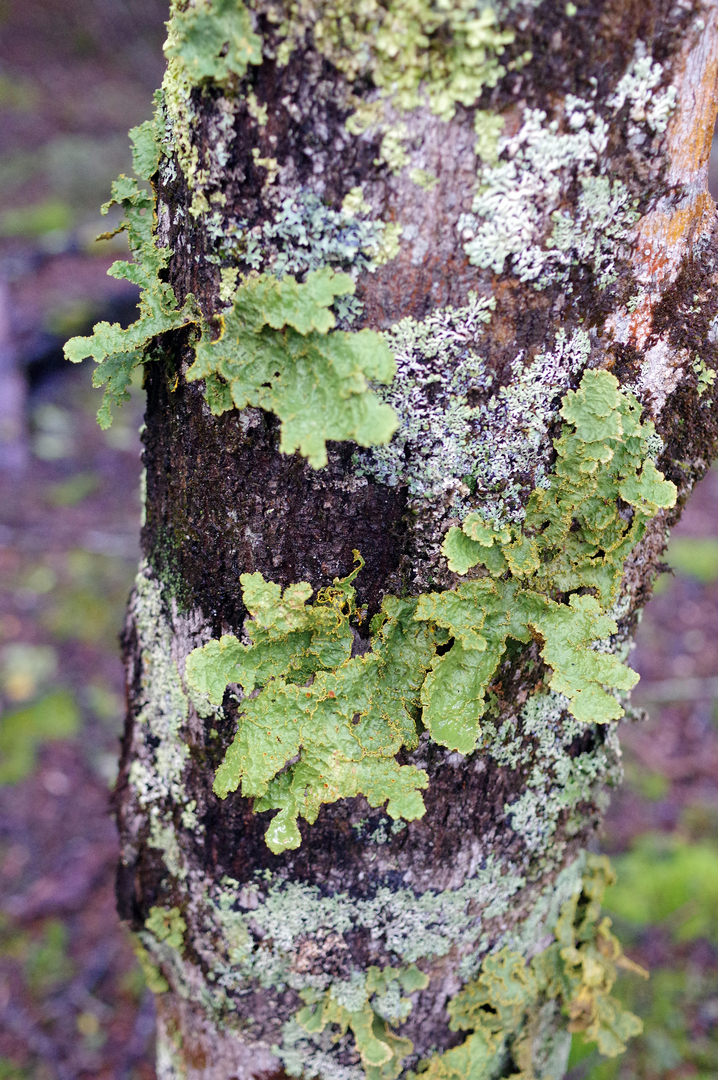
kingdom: Fungi
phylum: Ascomycota
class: Lecanoromycetes
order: Peltigerales
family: Lobariaceae
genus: Yarrumia
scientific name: Yarrumia colensoi
